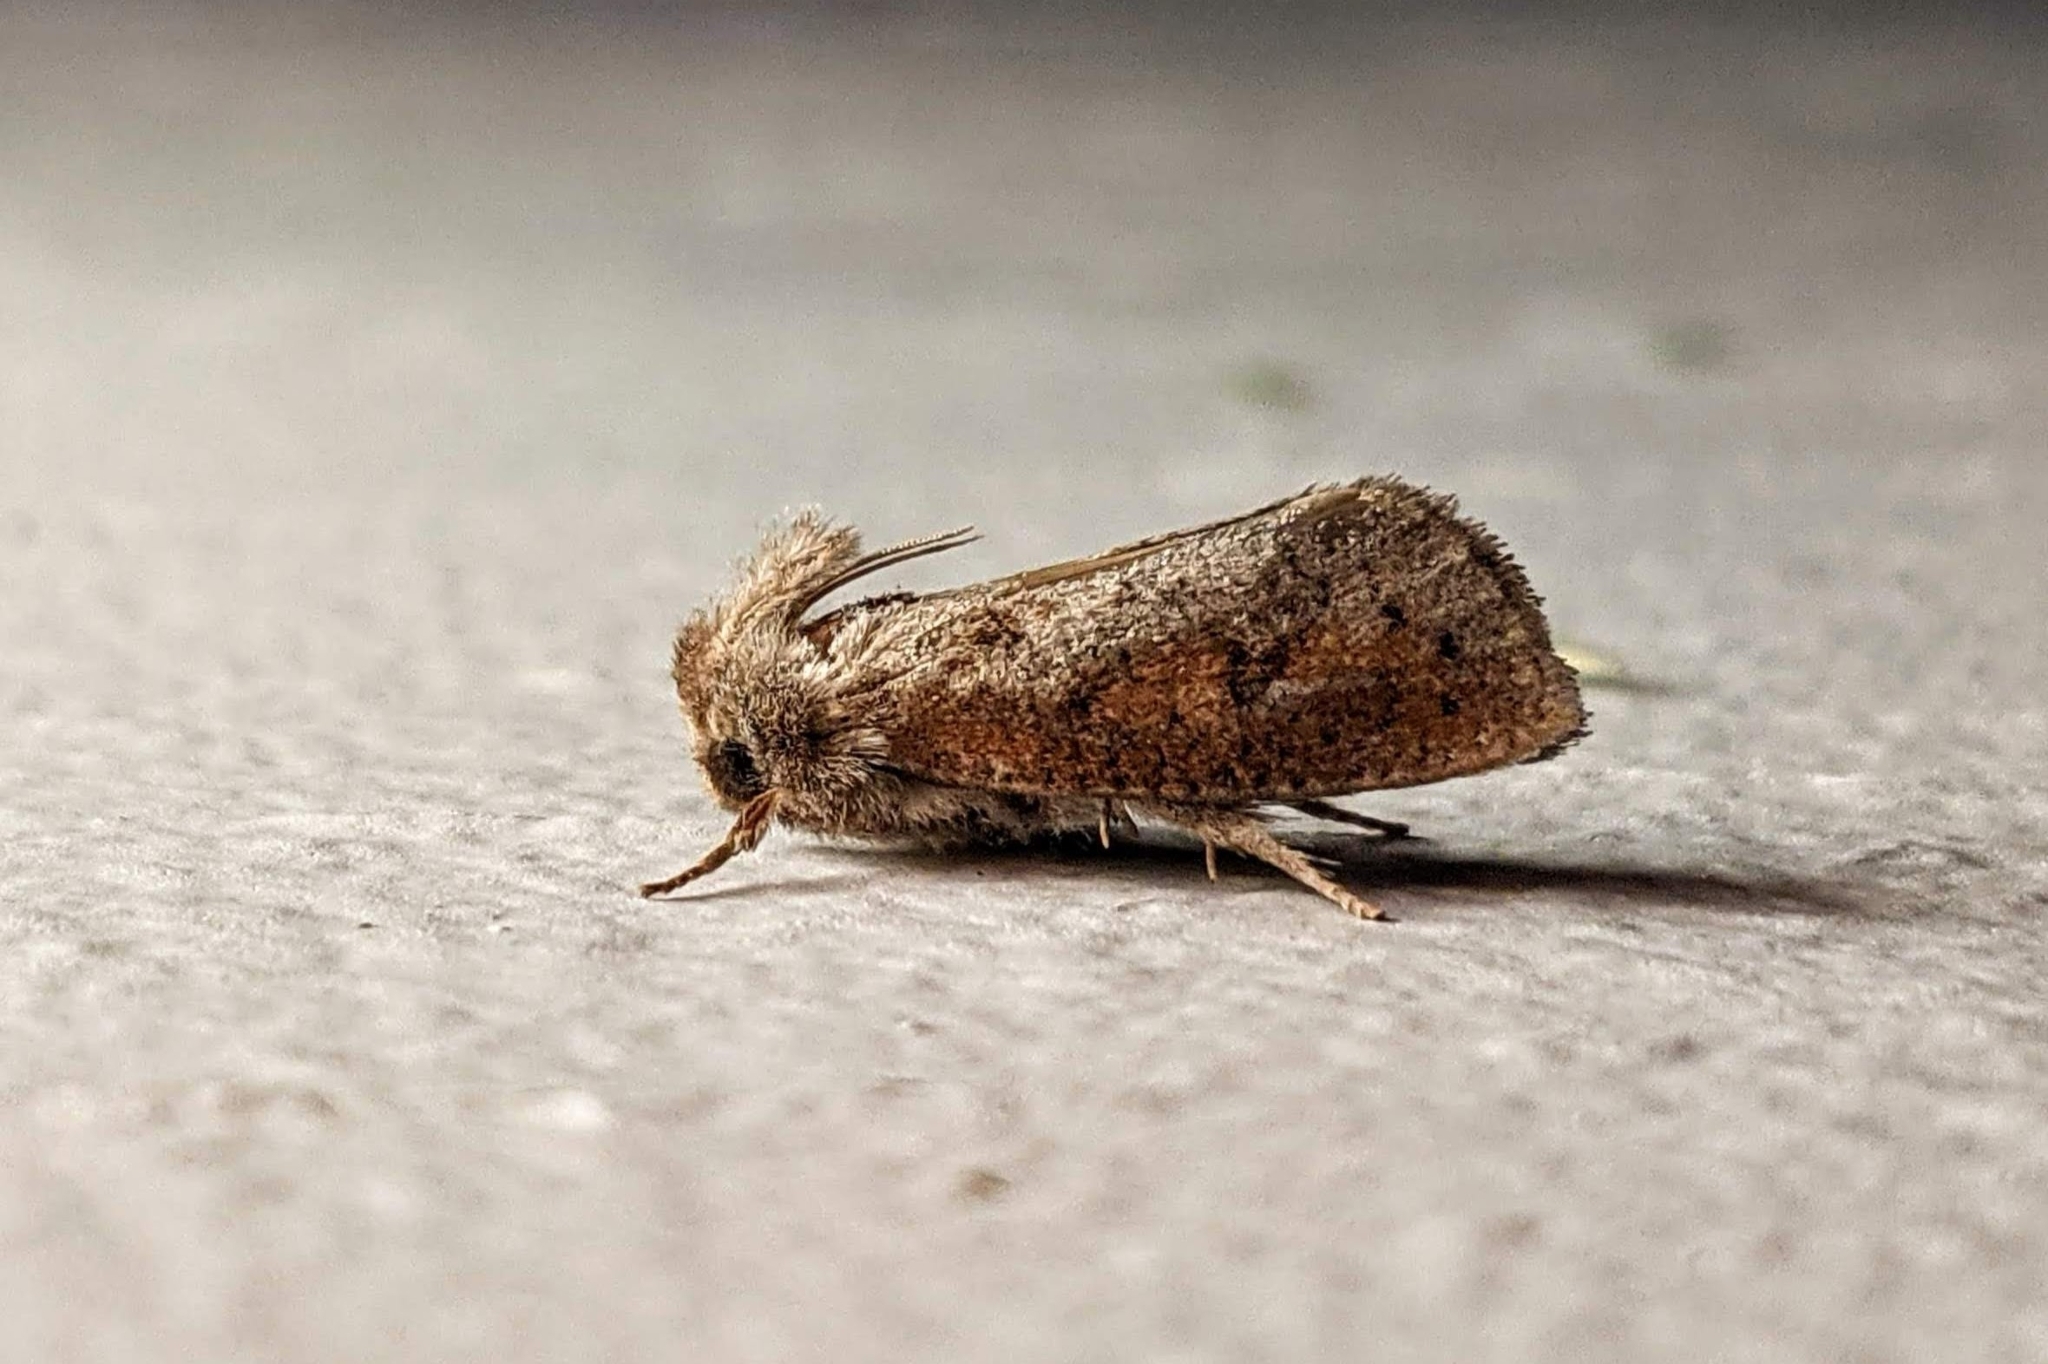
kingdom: Animalia
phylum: Arthropoda
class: Insecta
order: Lepidoptera
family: Tineidae
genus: Acrolophus
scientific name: Acrolophus plumifrontella
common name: Eastern grass tubeworm moth
